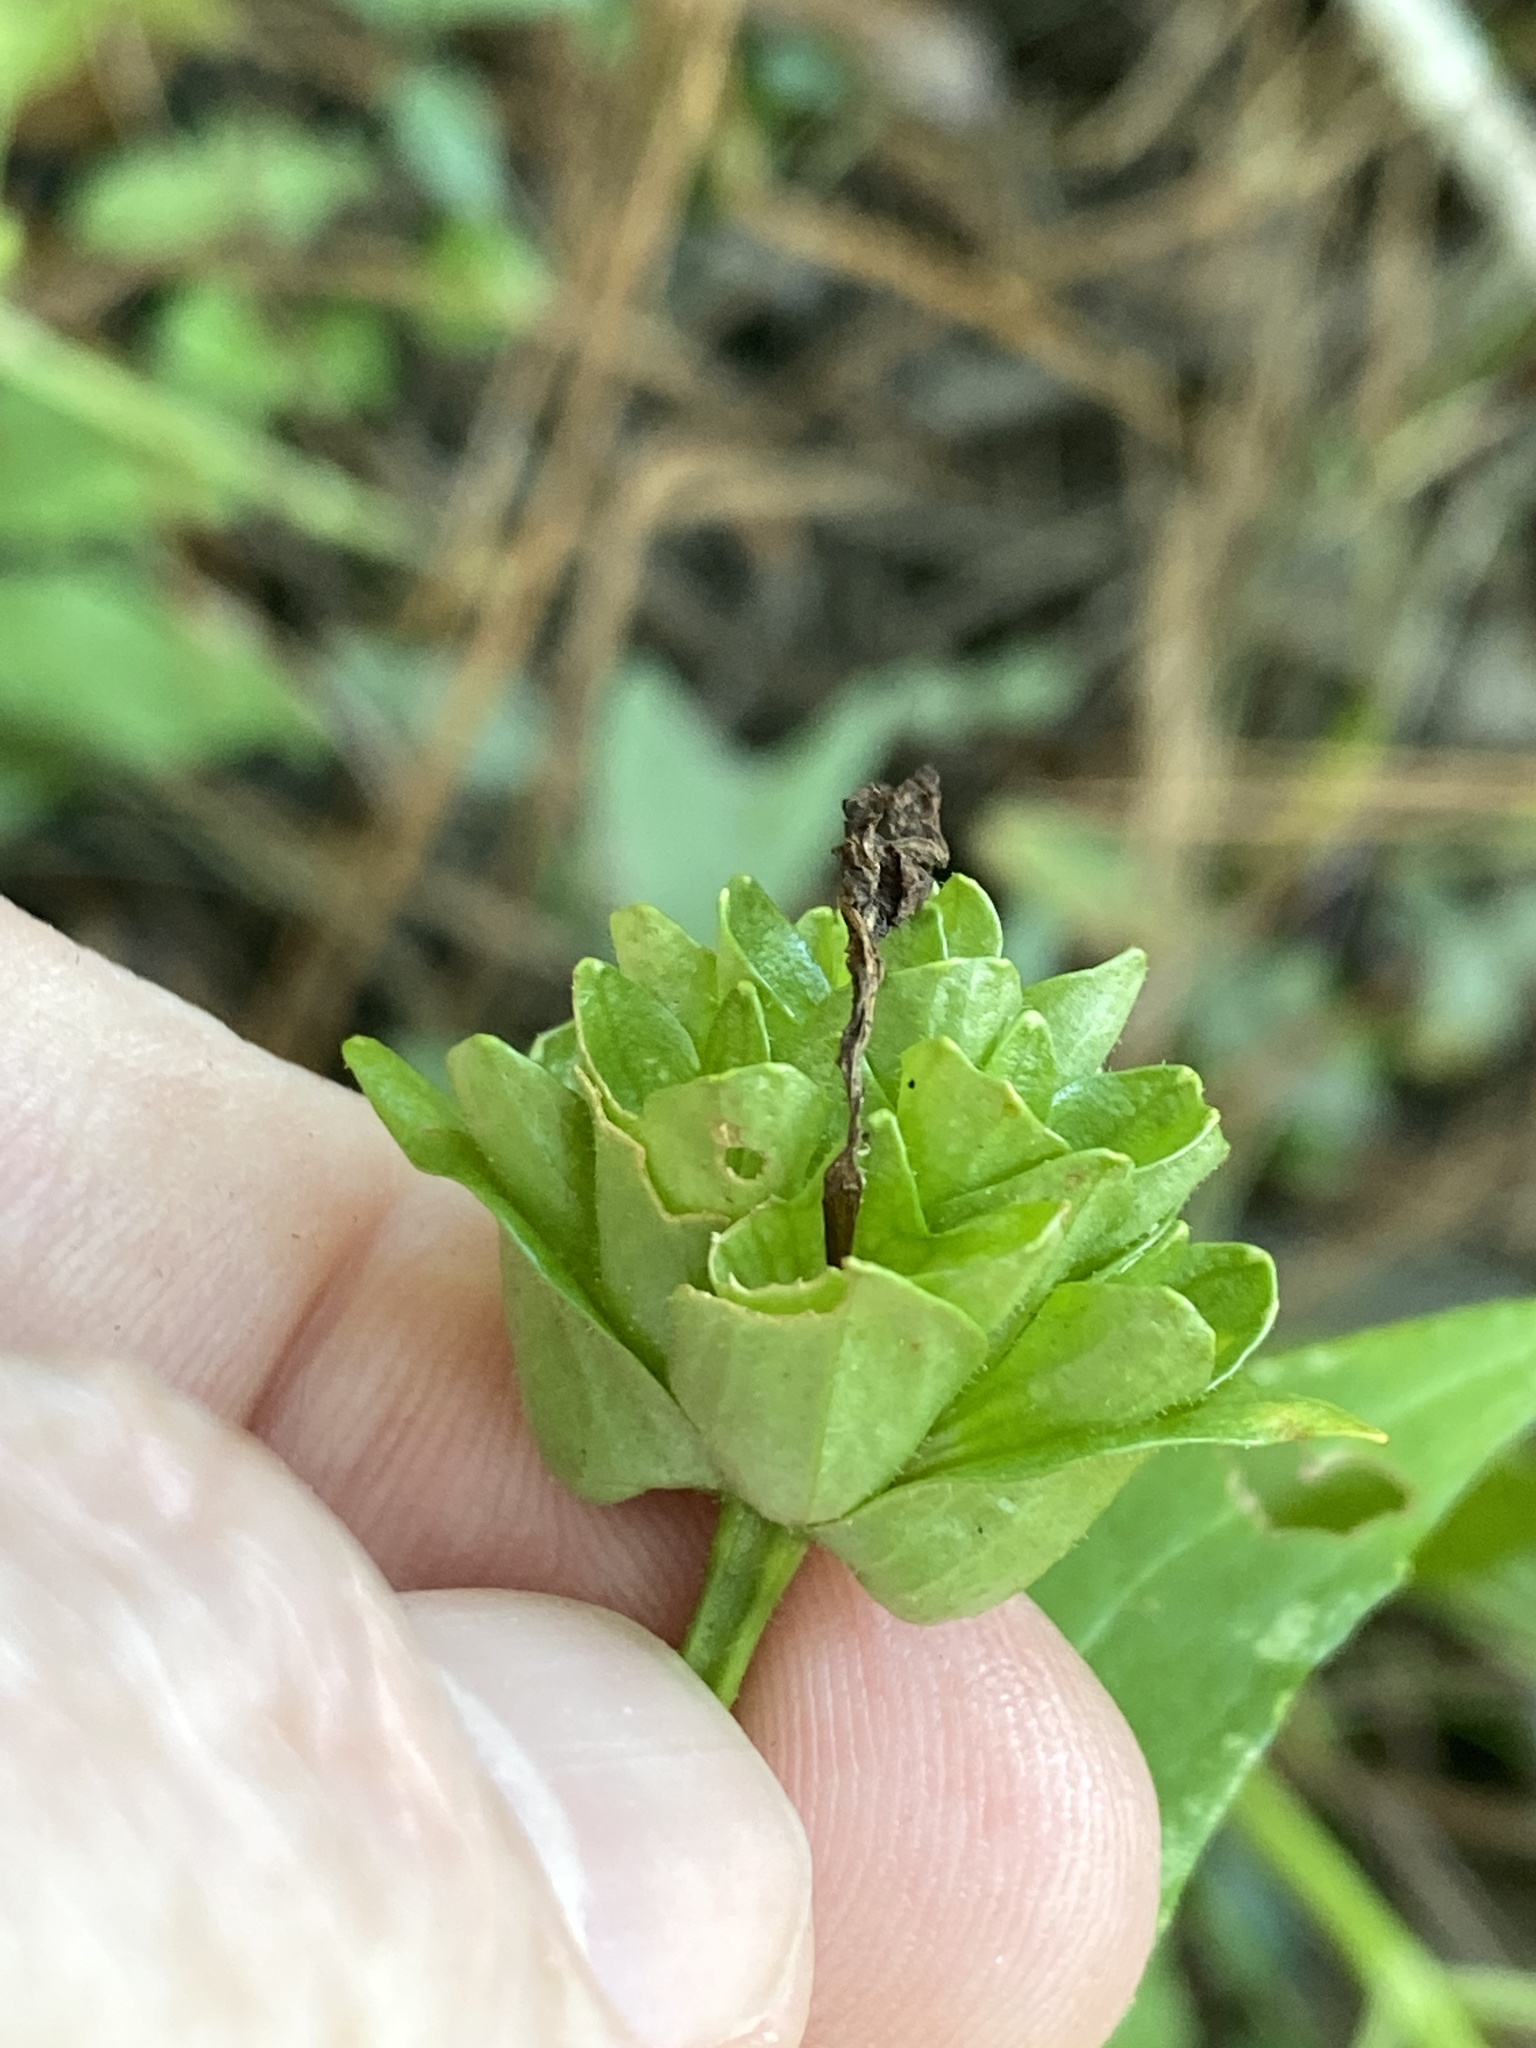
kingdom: Plantae
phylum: Tracheophyta
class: Magnoliopsida
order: Lamiales
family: Lamiaceae
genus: Macbridea
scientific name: Macbridea caroliniana
